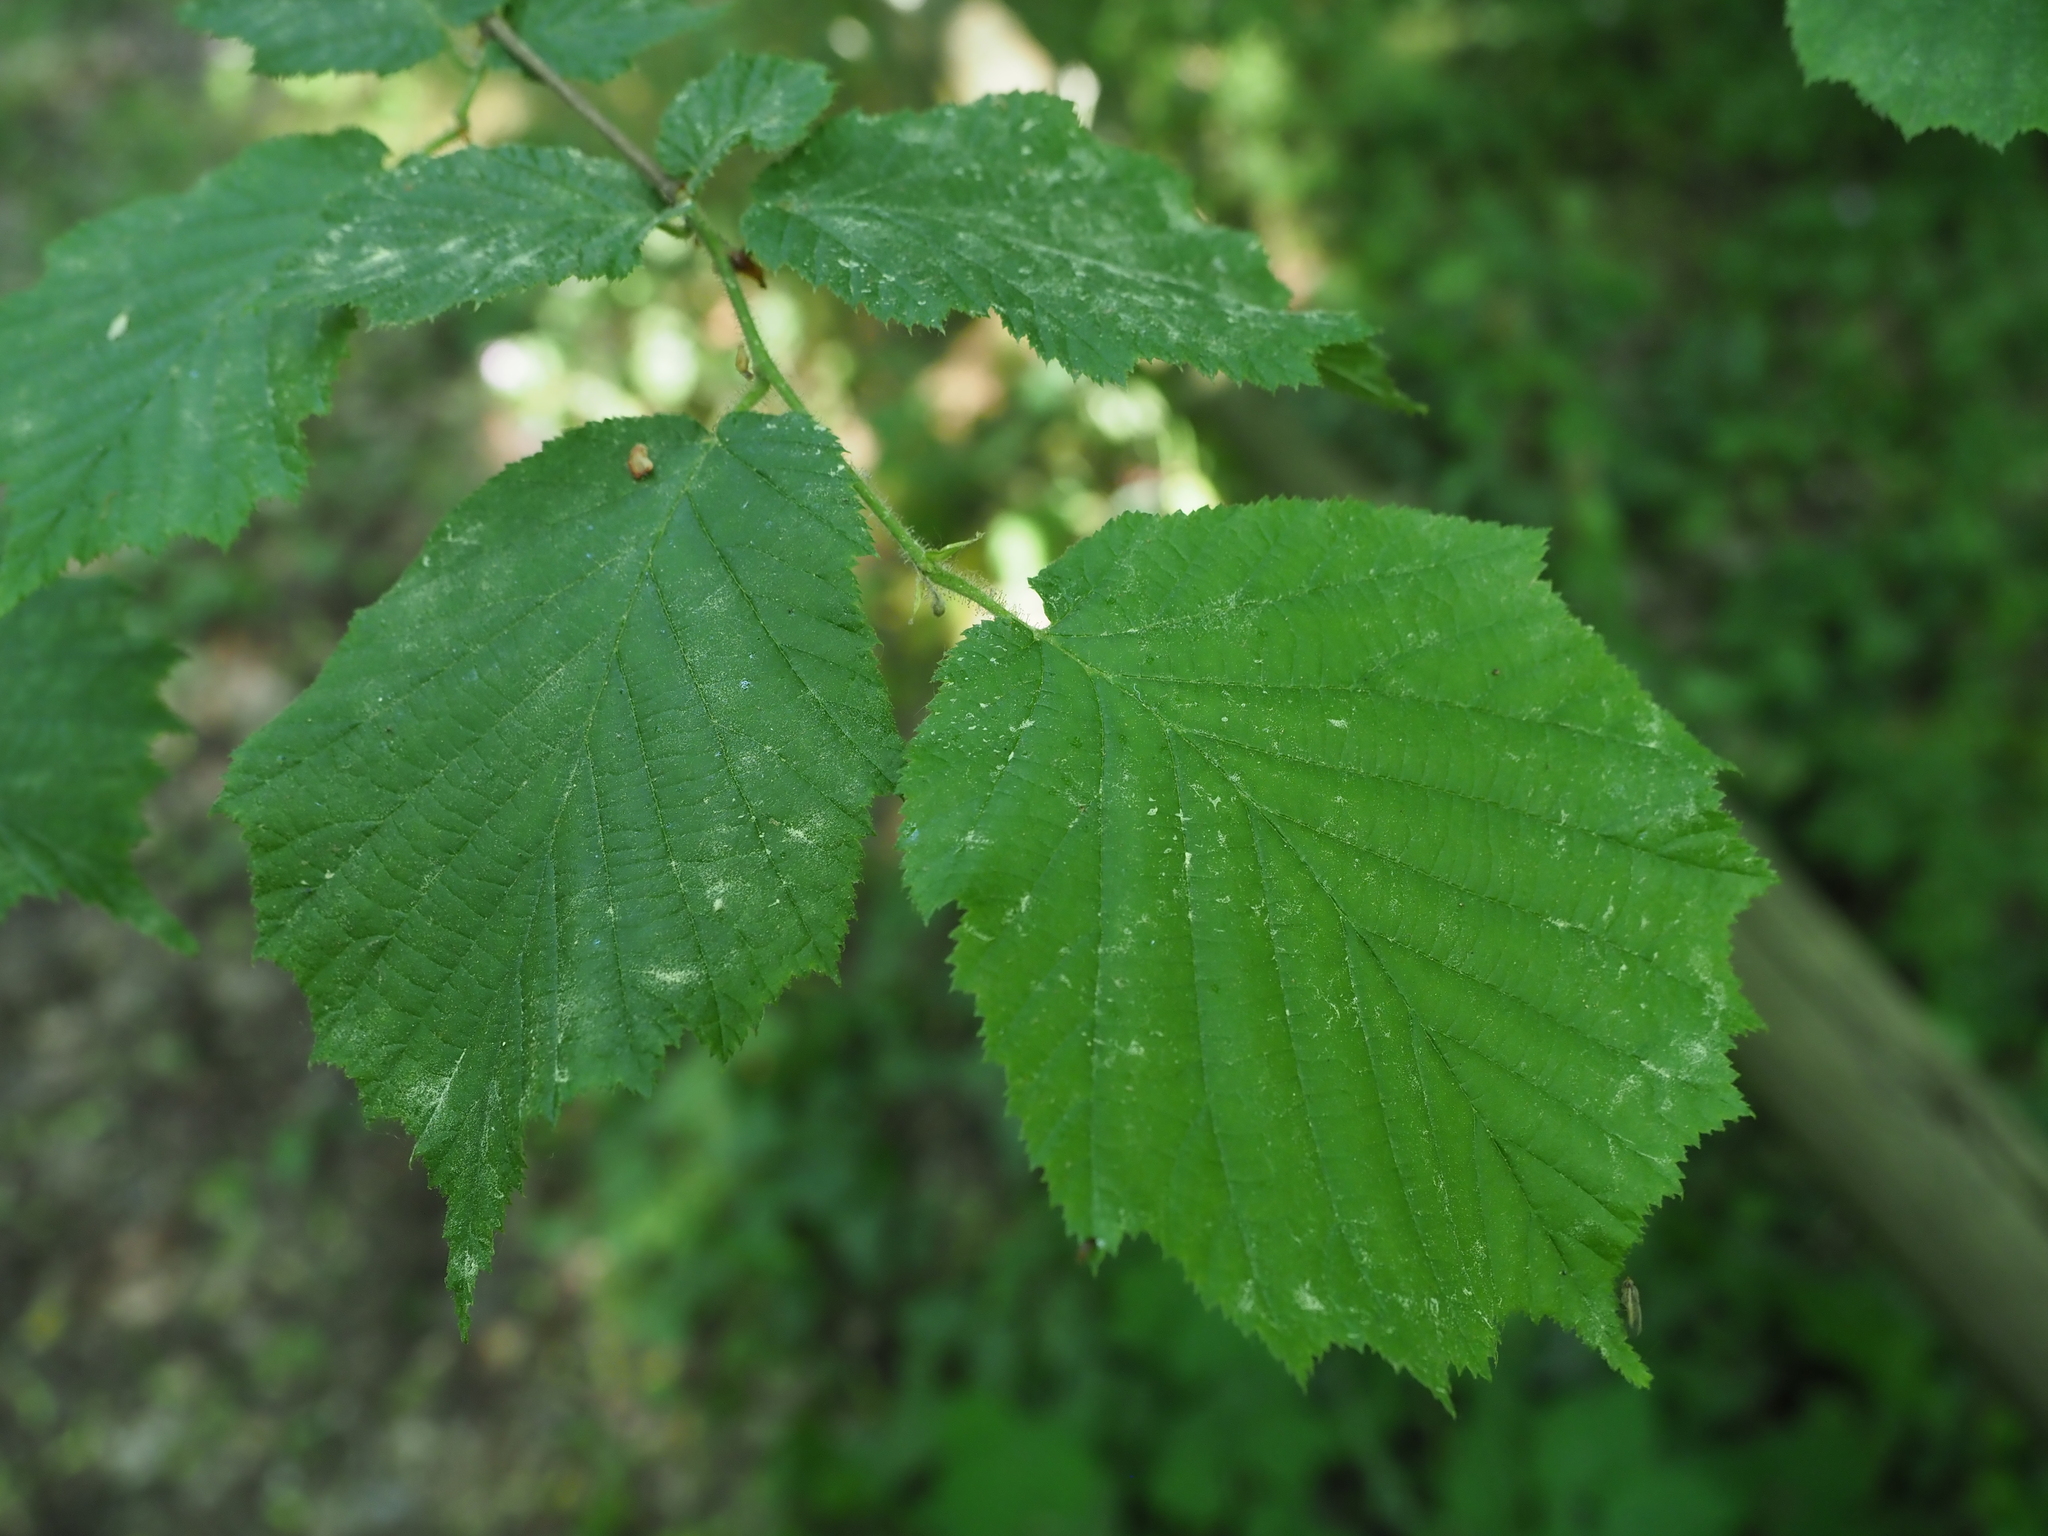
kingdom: Plantae
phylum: Tracheophyta
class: Magnoliopsida
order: Fagales
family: Betulaceae
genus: Corylus
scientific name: Corylus avellana
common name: European hazel
